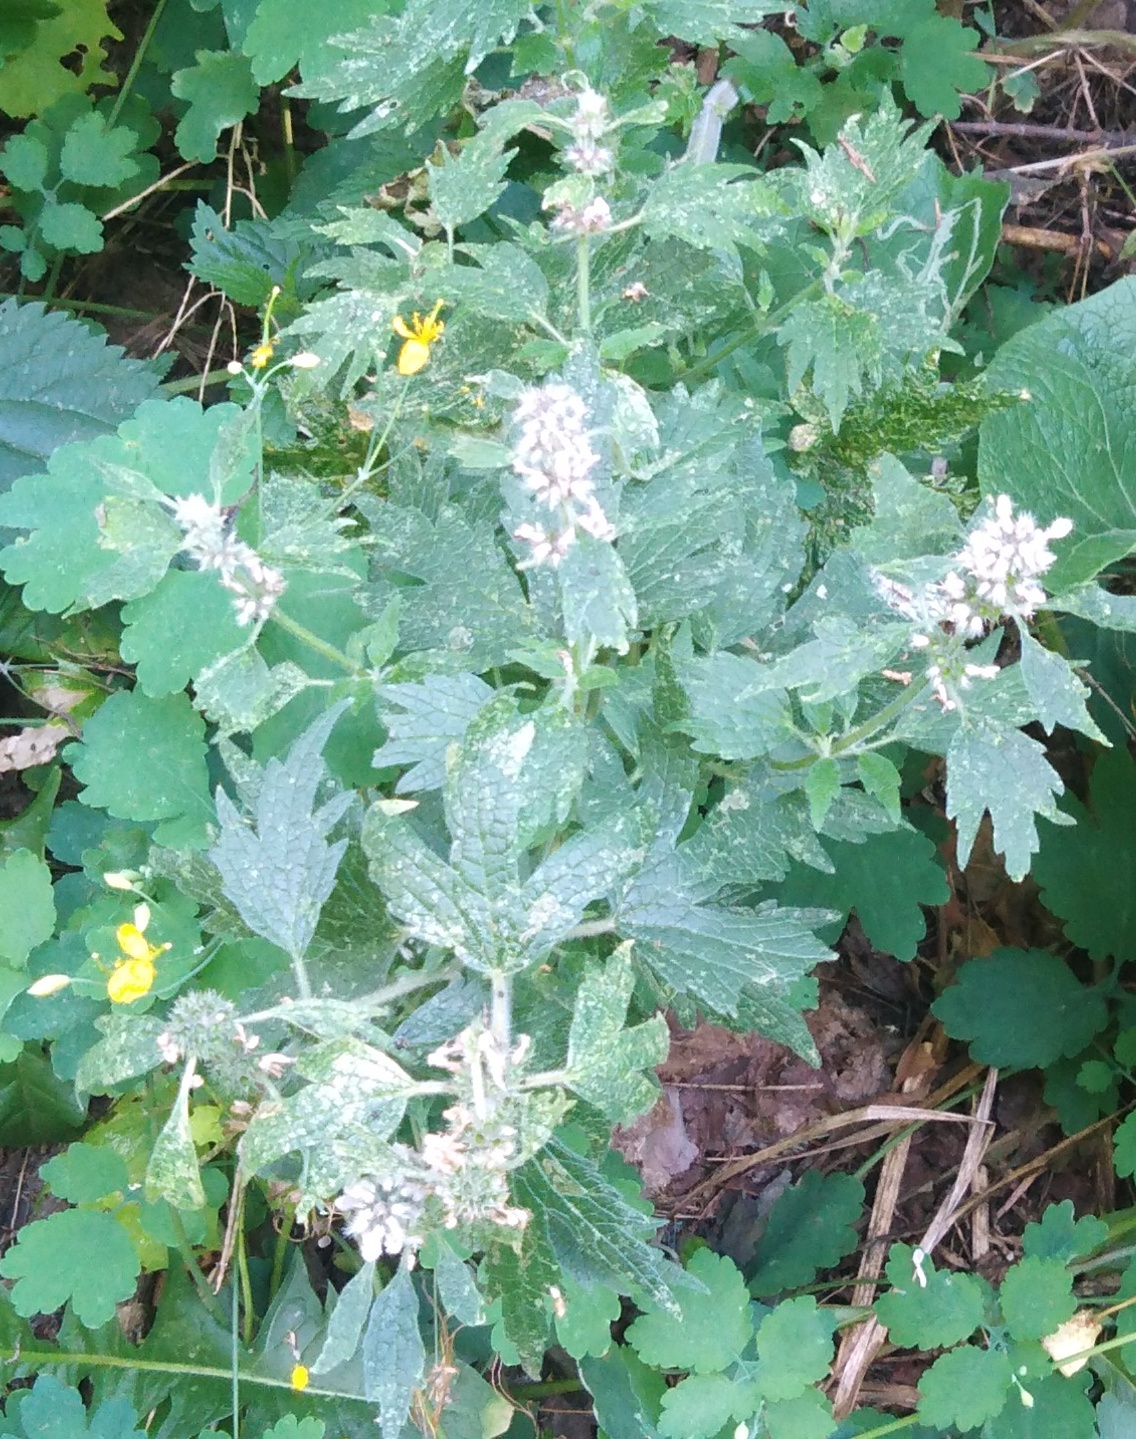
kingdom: Plantae
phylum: Tracheophyta
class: Magnoliopsida
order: Lamiales
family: Lamiaceae
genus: Leonurus
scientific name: Leonurus quinquelobatus
